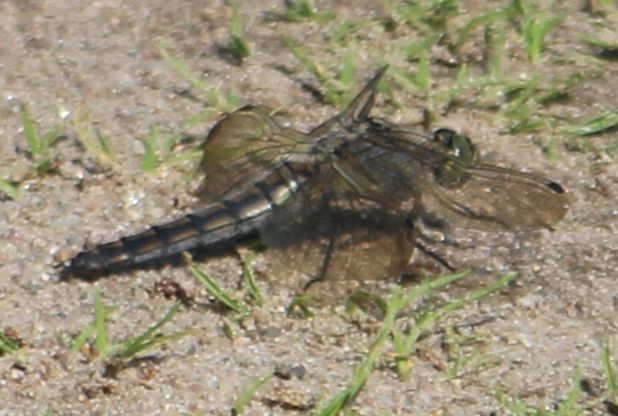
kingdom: Animalia
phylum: Arthropoda
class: Insecta
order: Odonata
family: Libellulidae
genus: Orthetrum
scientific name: Orthetrum cancellatum
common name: Black-tailed skimmer
